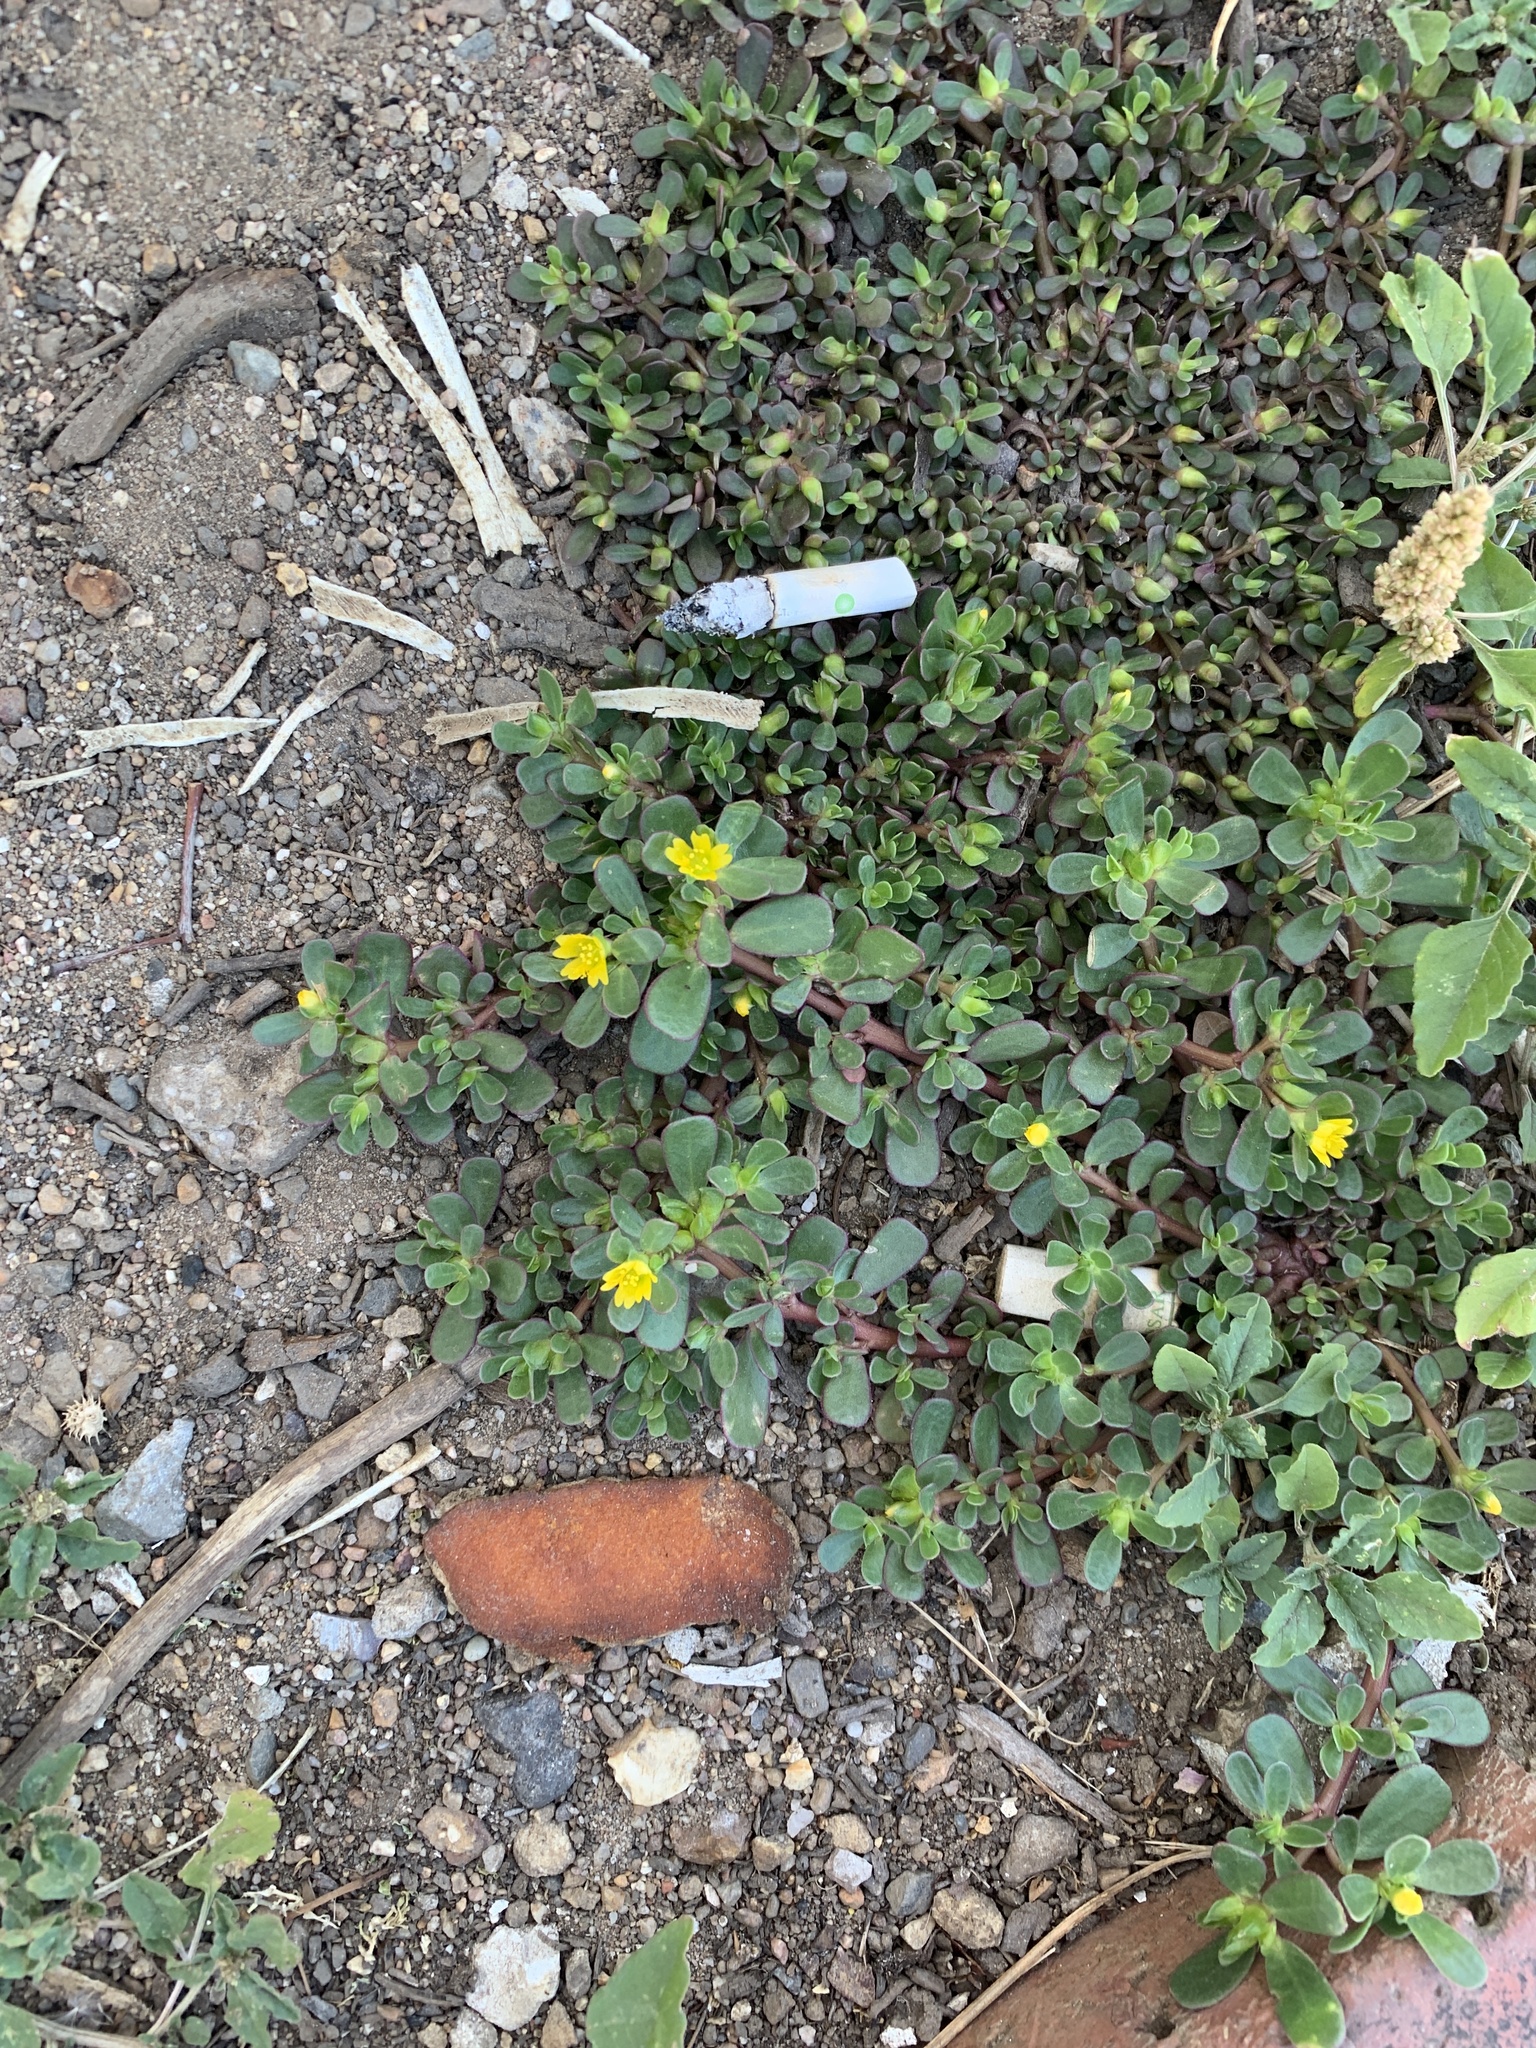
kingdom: Plantae
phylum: Tracheophyta
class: Magnoliopsida
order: Caryophyllales
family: Portulacaceae
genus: Portulaca
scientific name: Portulaca oleracea
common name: Common purslane
